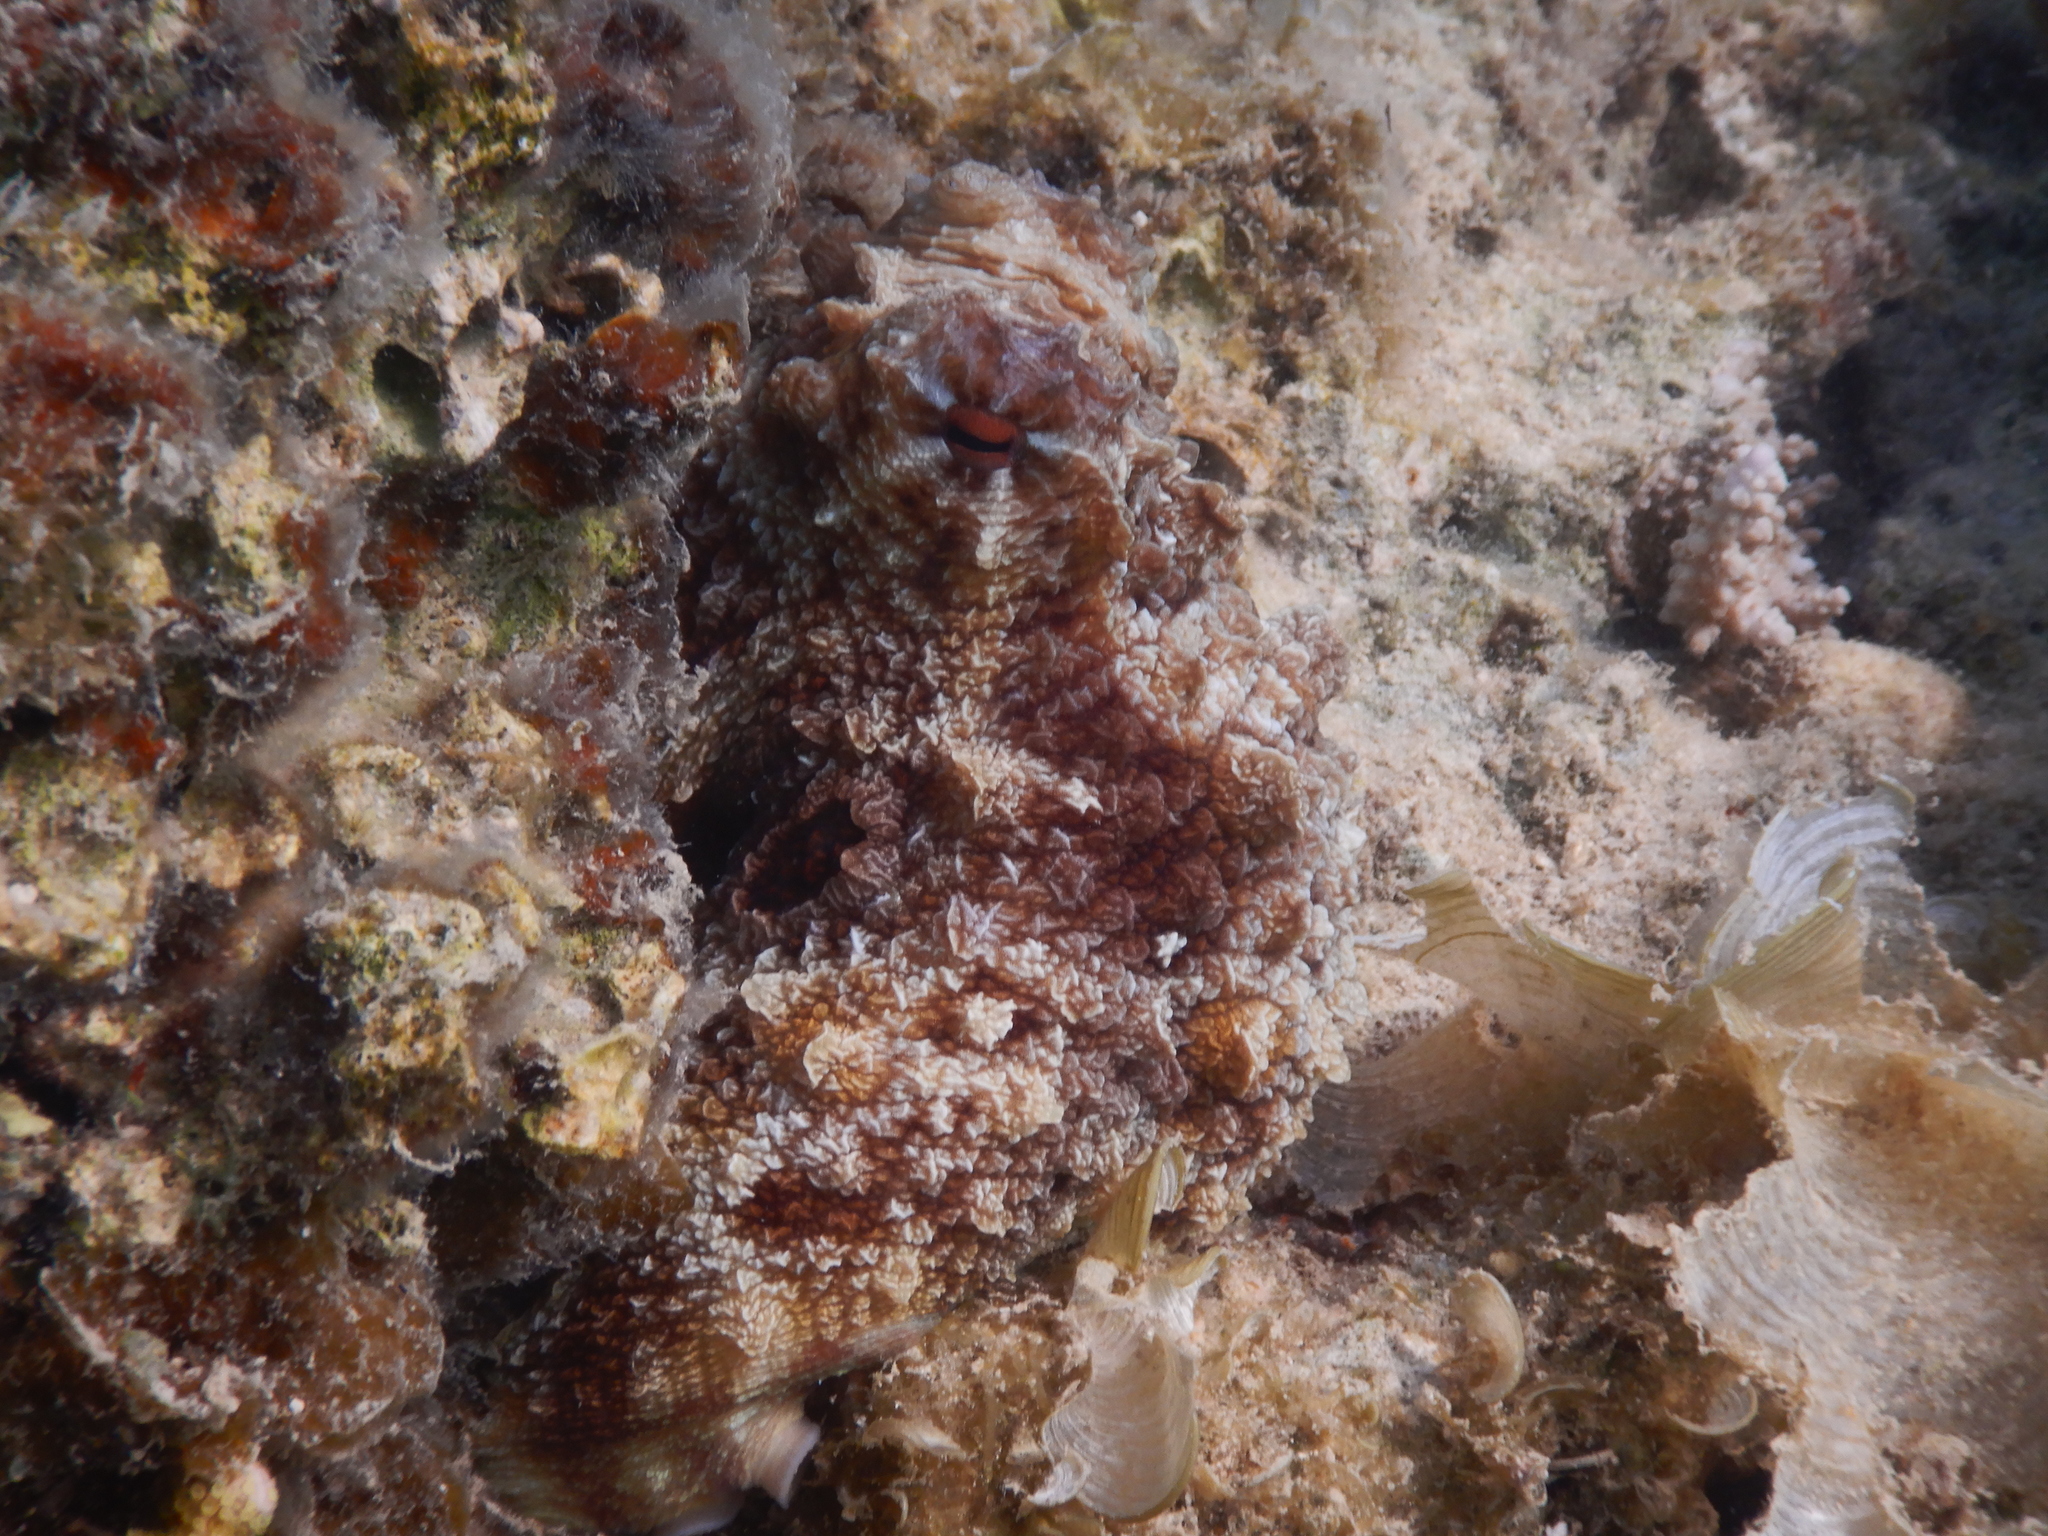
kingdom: Animalia
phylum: Mollusca
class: Cephalopoda
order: Octopoda
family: Octopodidae
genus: Octopus
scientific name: Octopus cyanea
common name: Cyane's octopus
